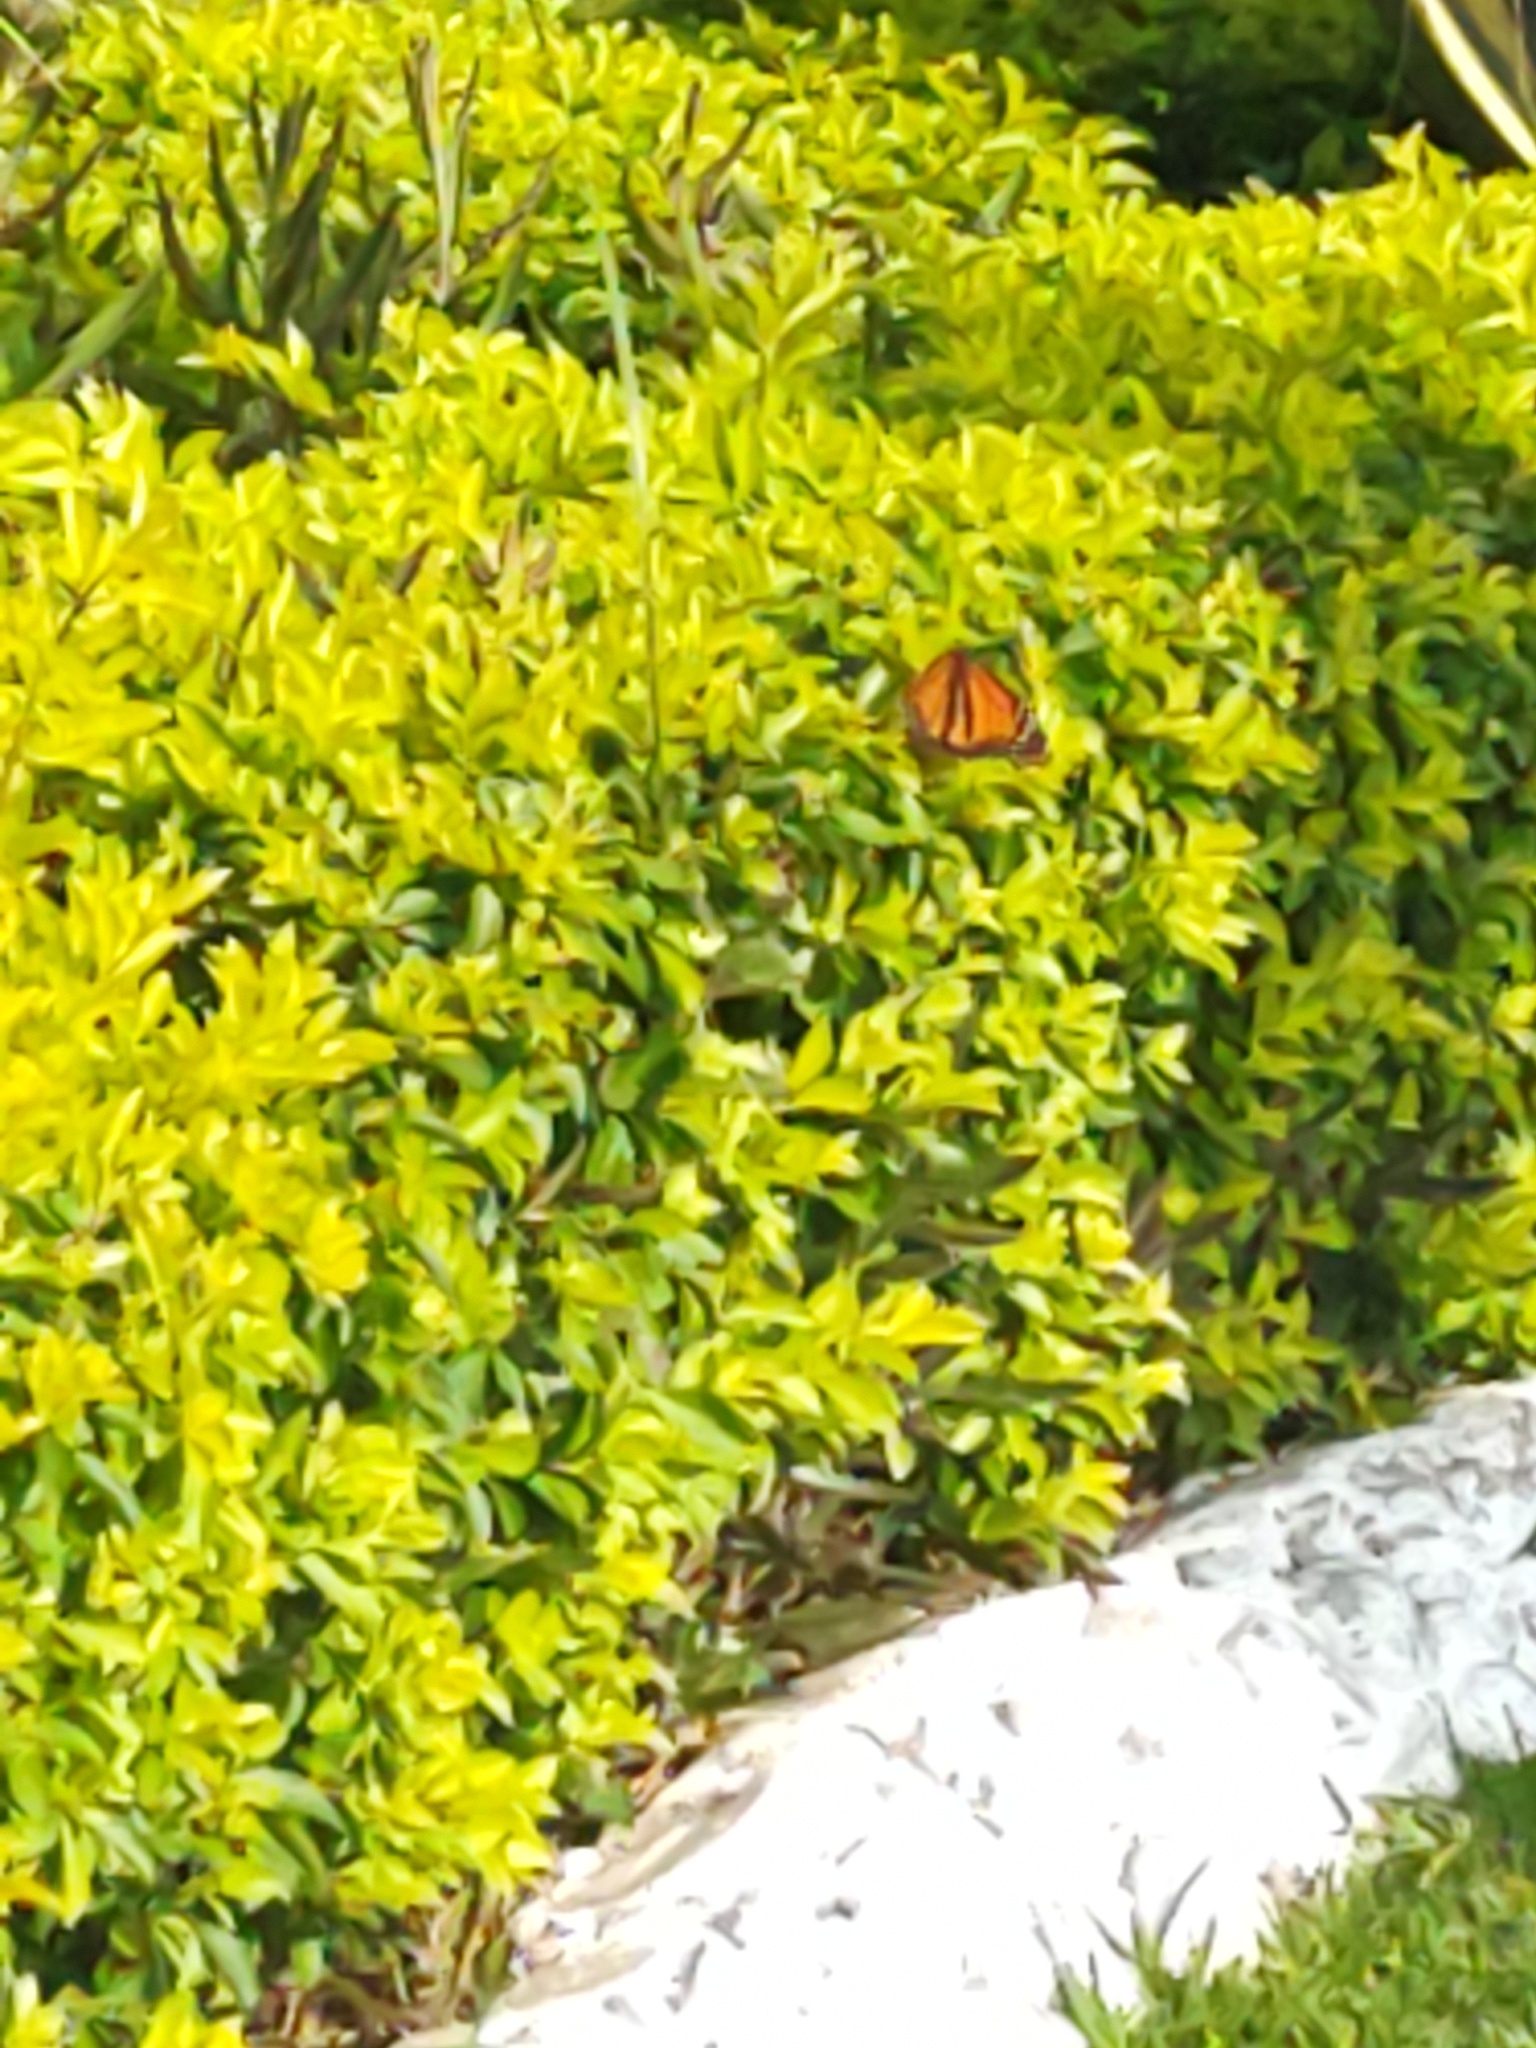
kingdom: Animalia
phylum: Arthropoda
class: Insecta
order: Lepidoptera
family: Nymphalidae
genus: Danaus
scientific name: Danaus plexippus
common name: Monarch
